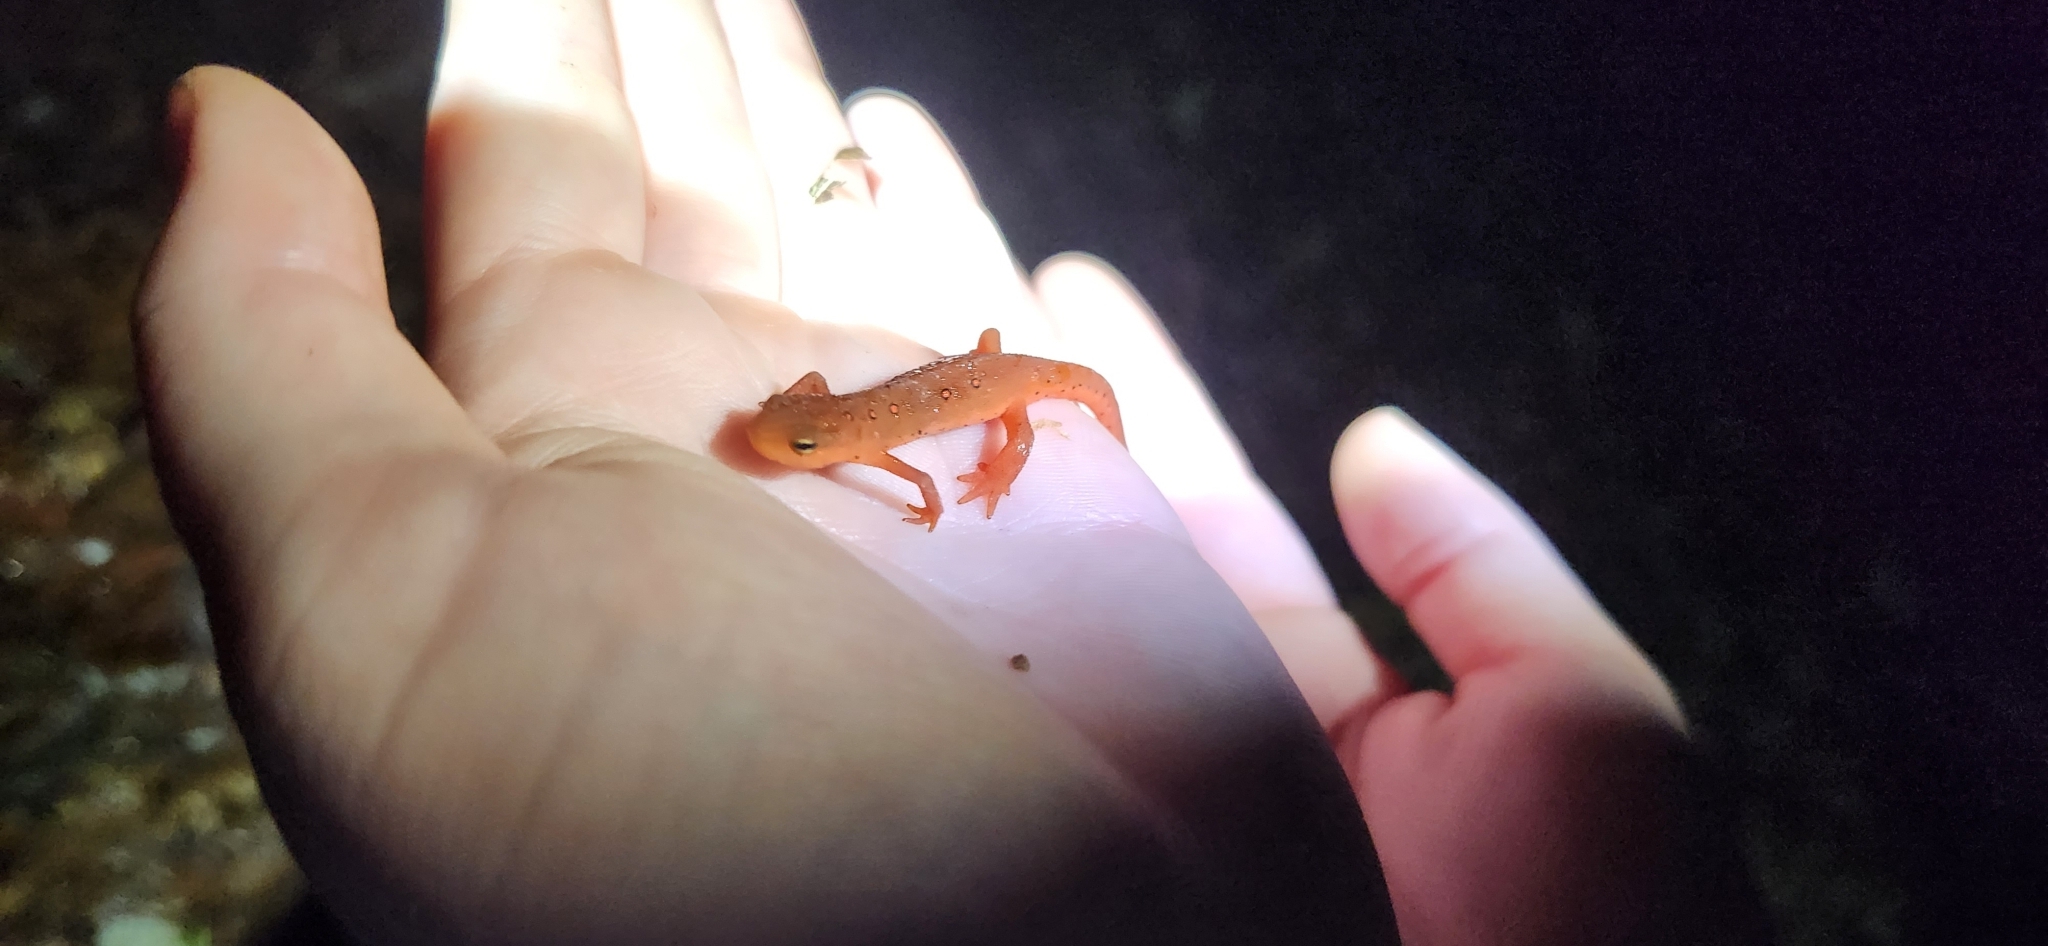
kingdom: Animalia
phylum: Chordata
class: Amphibia
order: Caudata
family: Salamandridae
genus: Notophthalmus
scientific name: Notophthalmus viridescens
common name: Eastern newt
